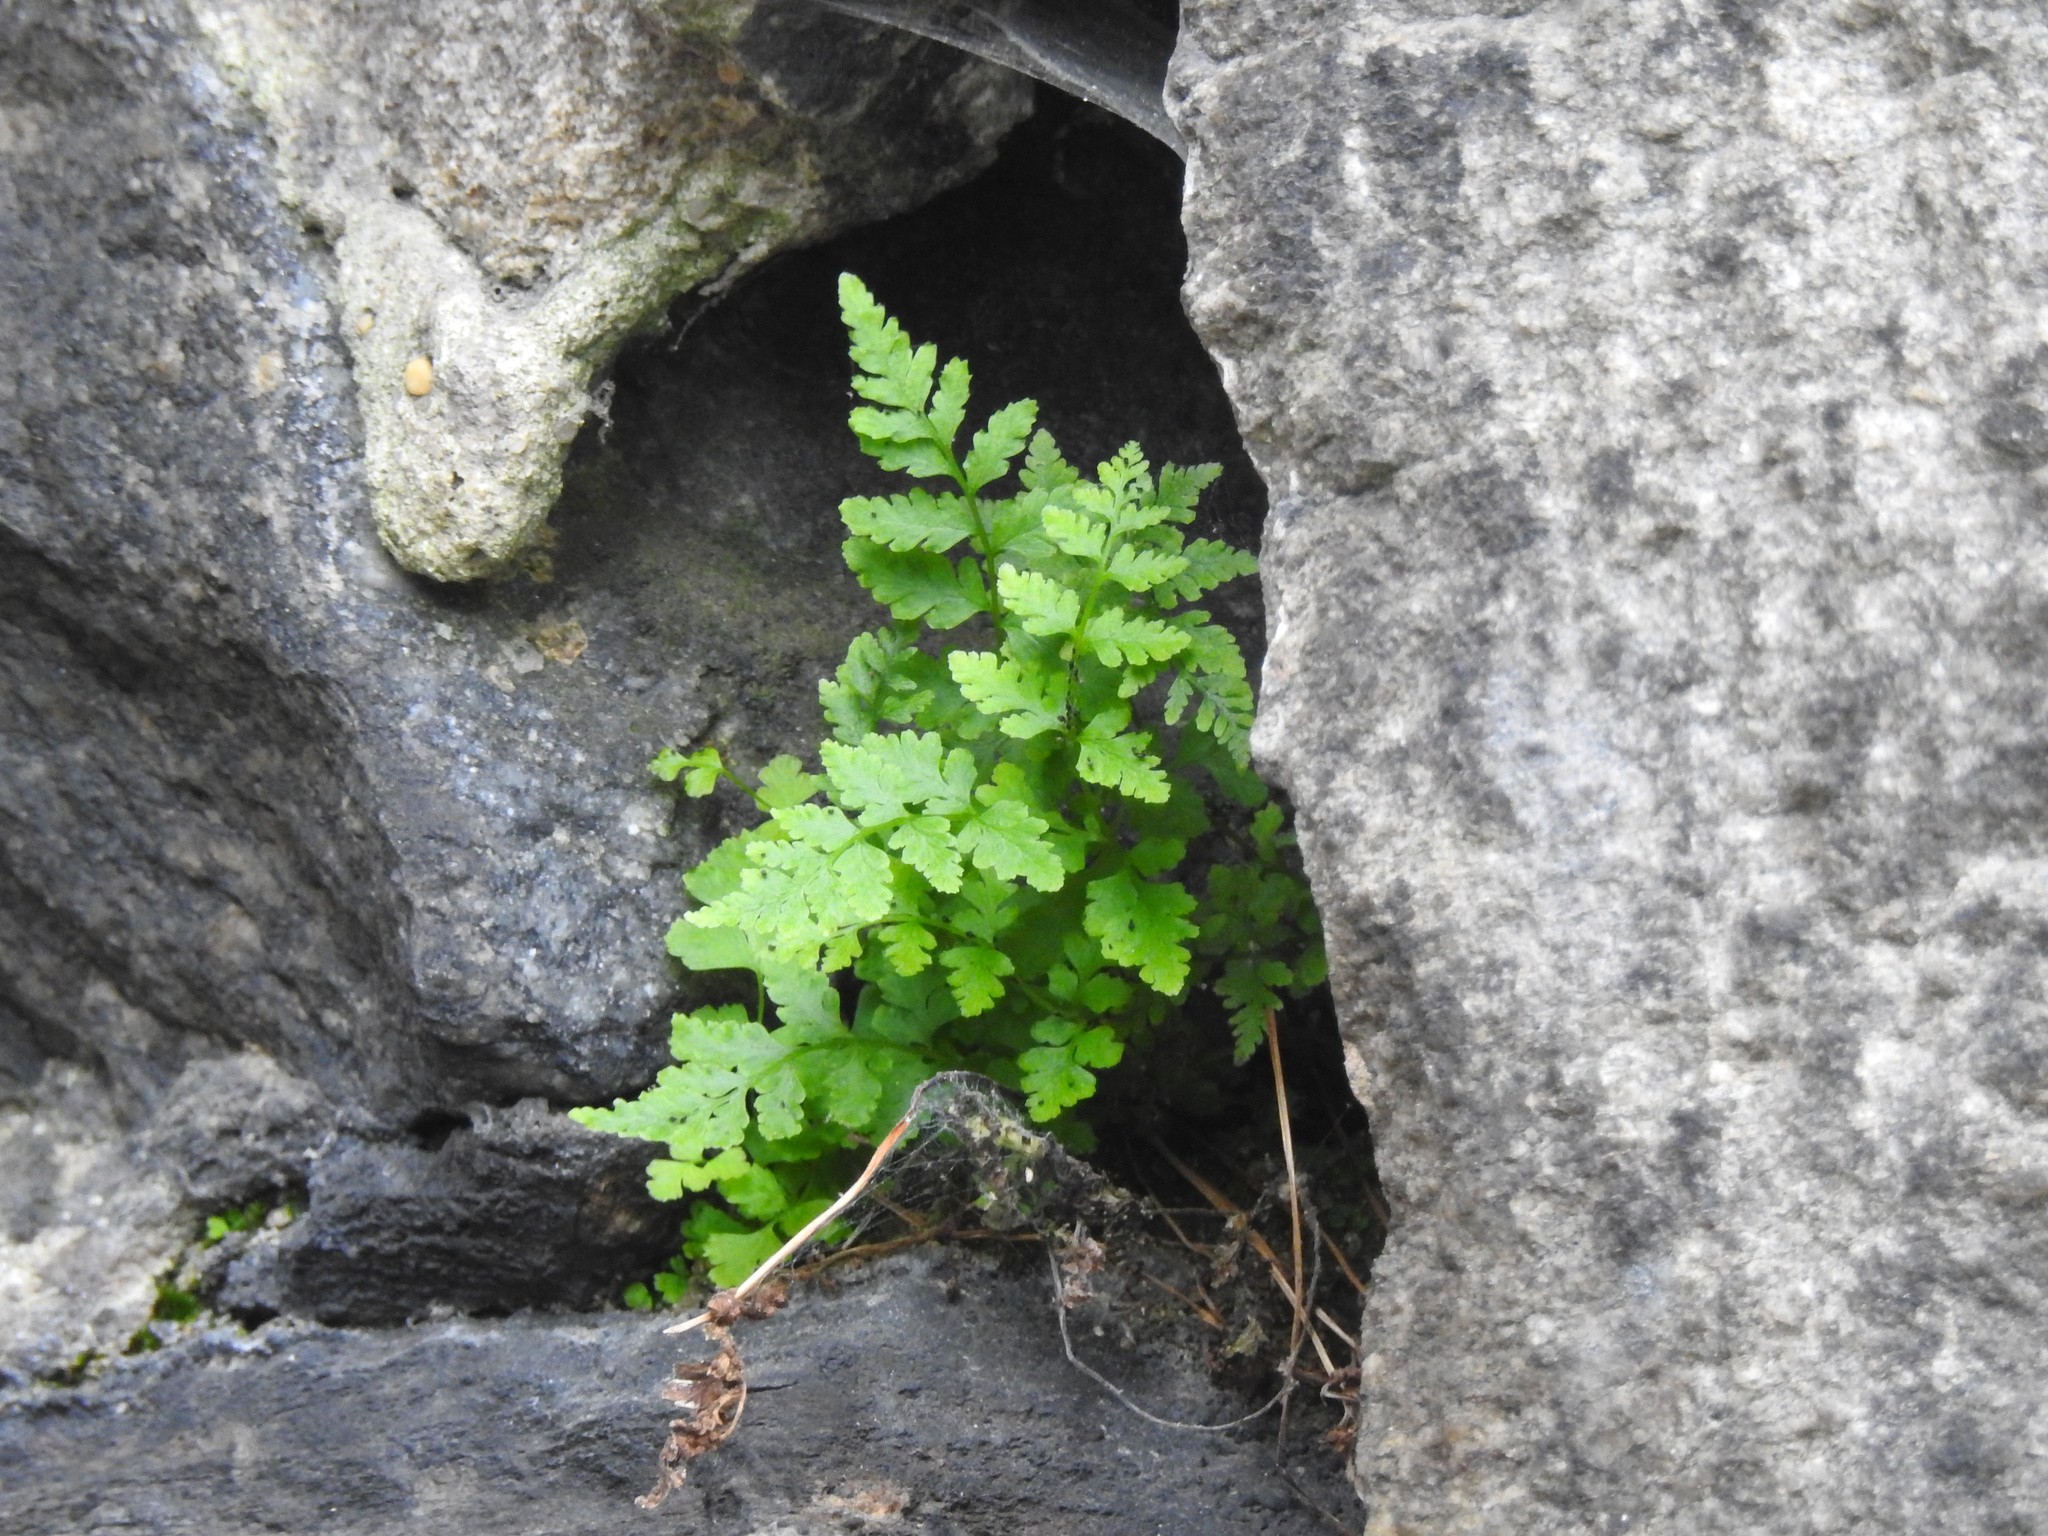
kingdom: Plantae
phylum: Tracheophyta
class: Polypodiopsida
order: Polypodiales
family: Woodsiaceae
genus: Physematium
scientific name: Physematium obtusum
